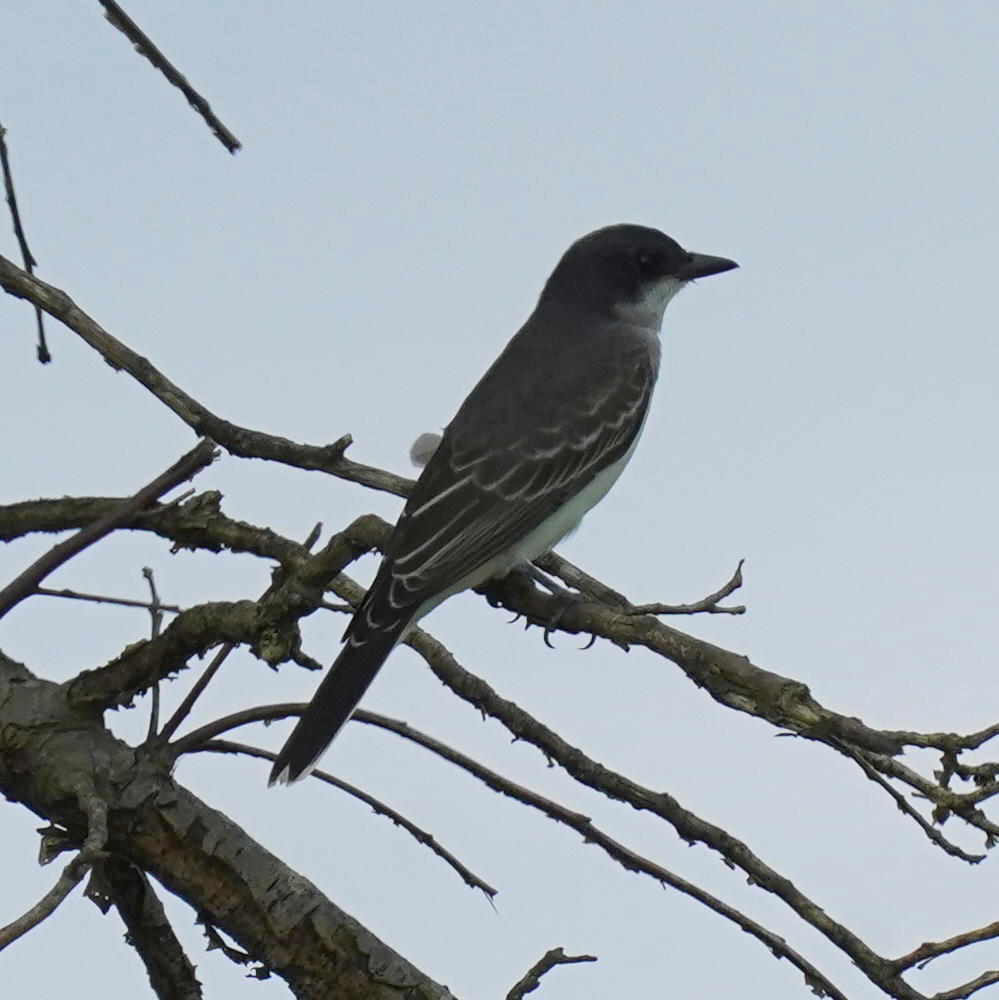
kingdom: Animalia
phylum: Chordata
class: Aves
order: Passeriformes
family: Tyrannidae
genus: Tyrannus
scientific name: Tyrannus tyrannus
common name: Eastern kingbird
